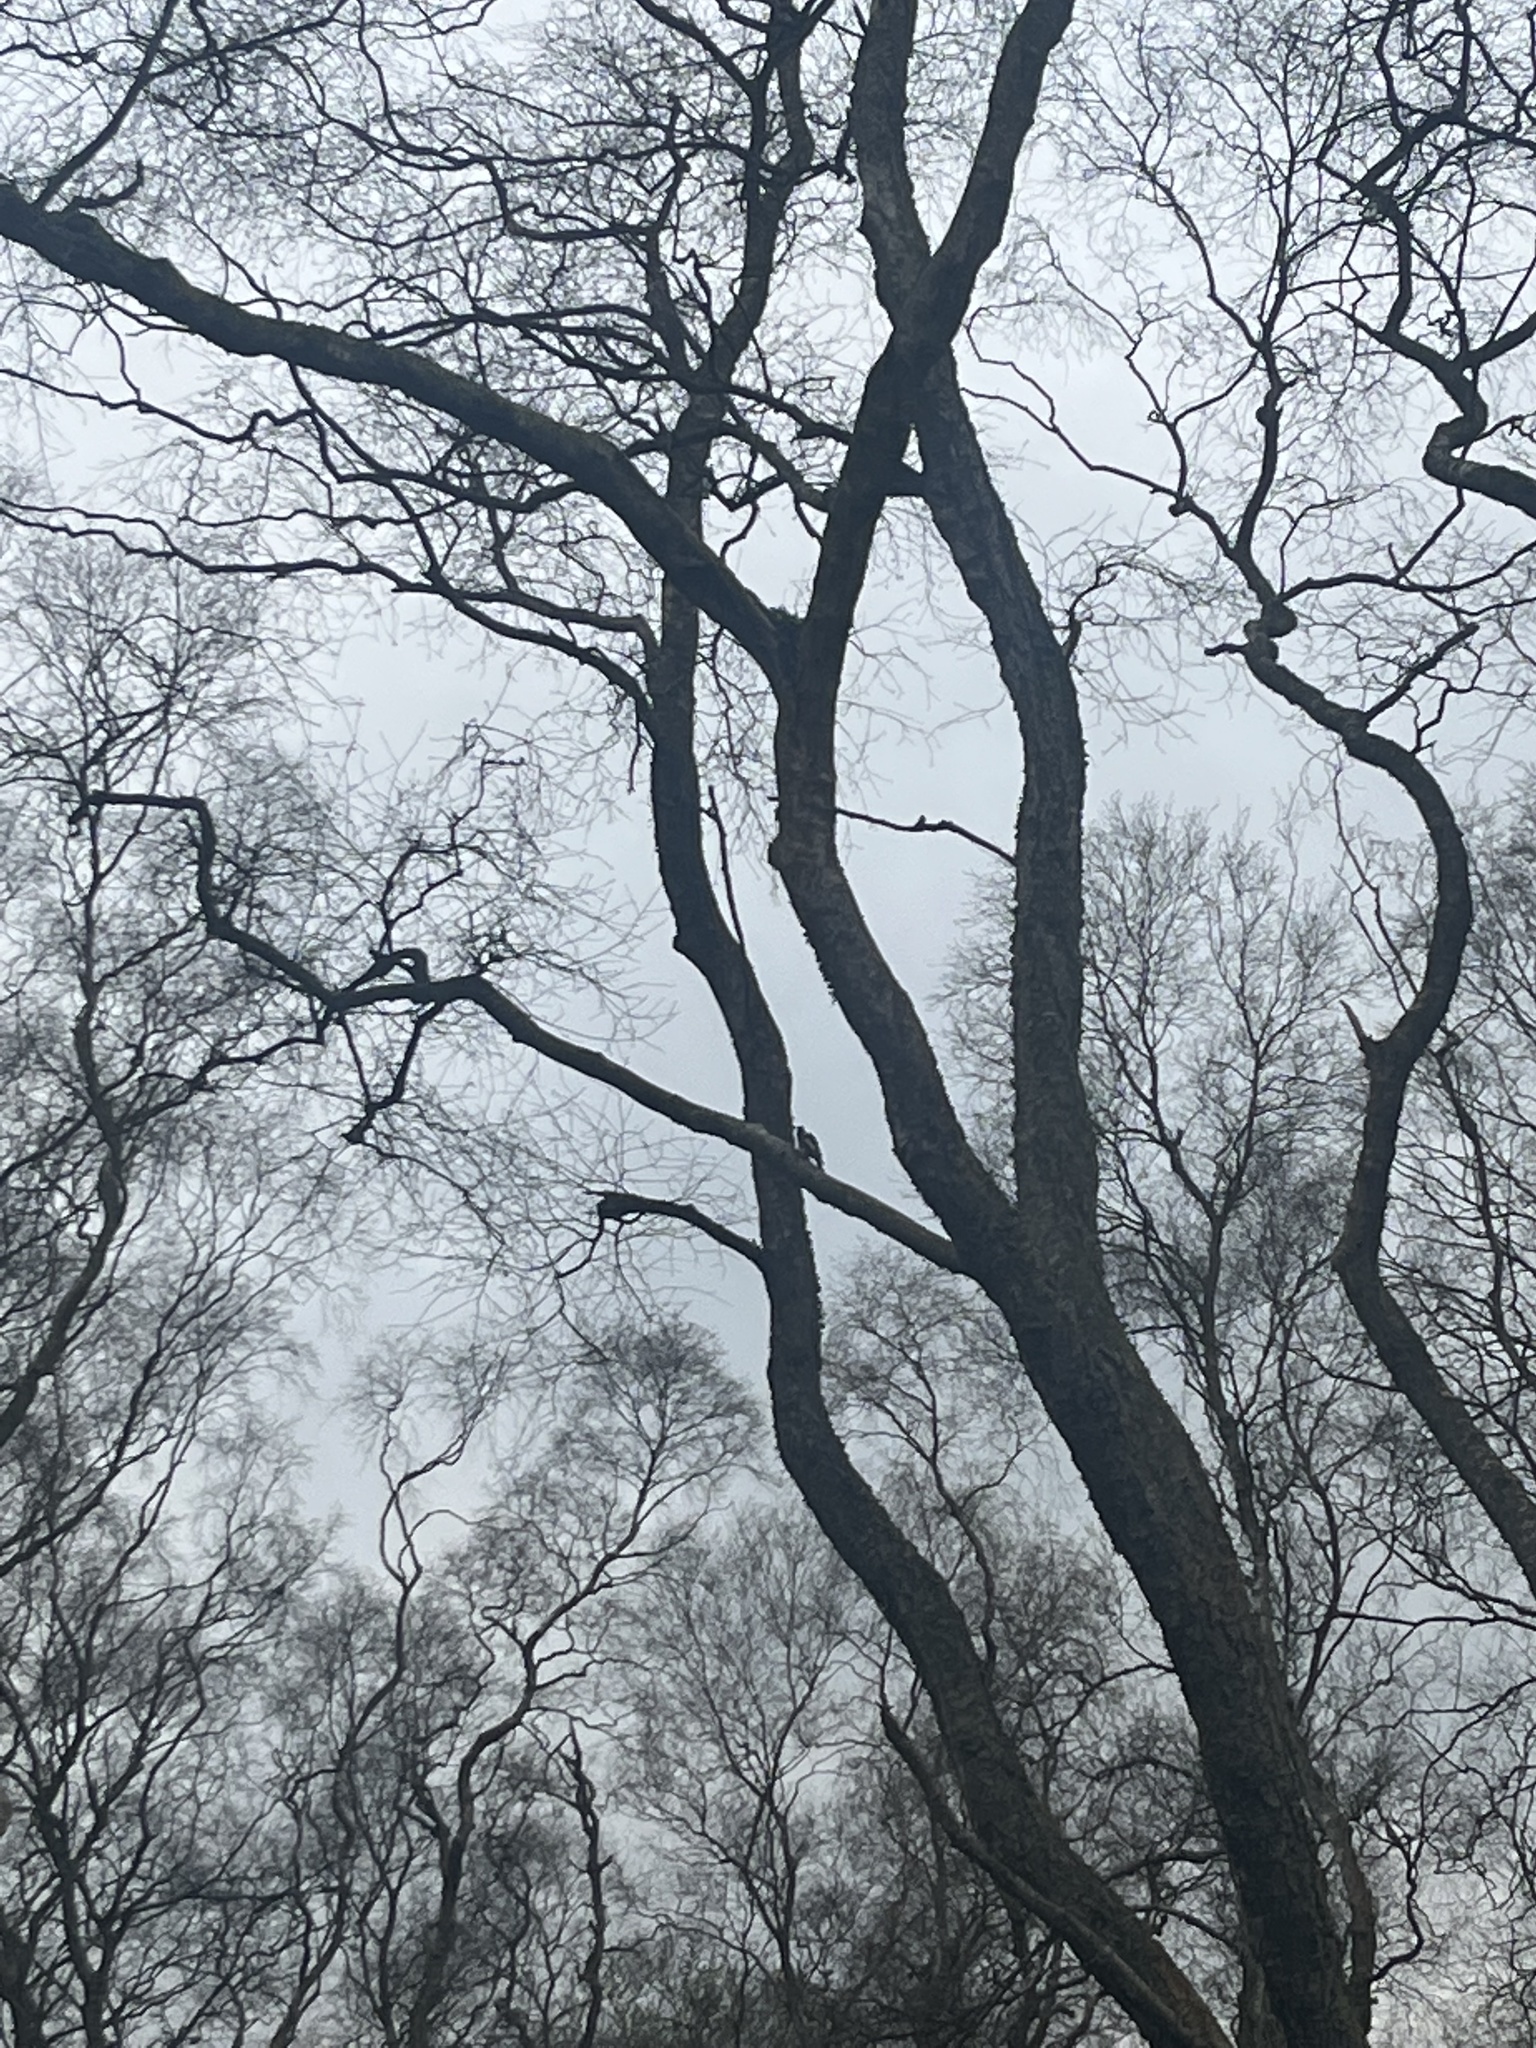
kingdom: Animalia
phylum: Chordata
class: Aves
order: Piciformes
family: Picidae
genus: Dendrocopos
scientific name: Dendrocopos major
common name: Great spotted woodpecker
